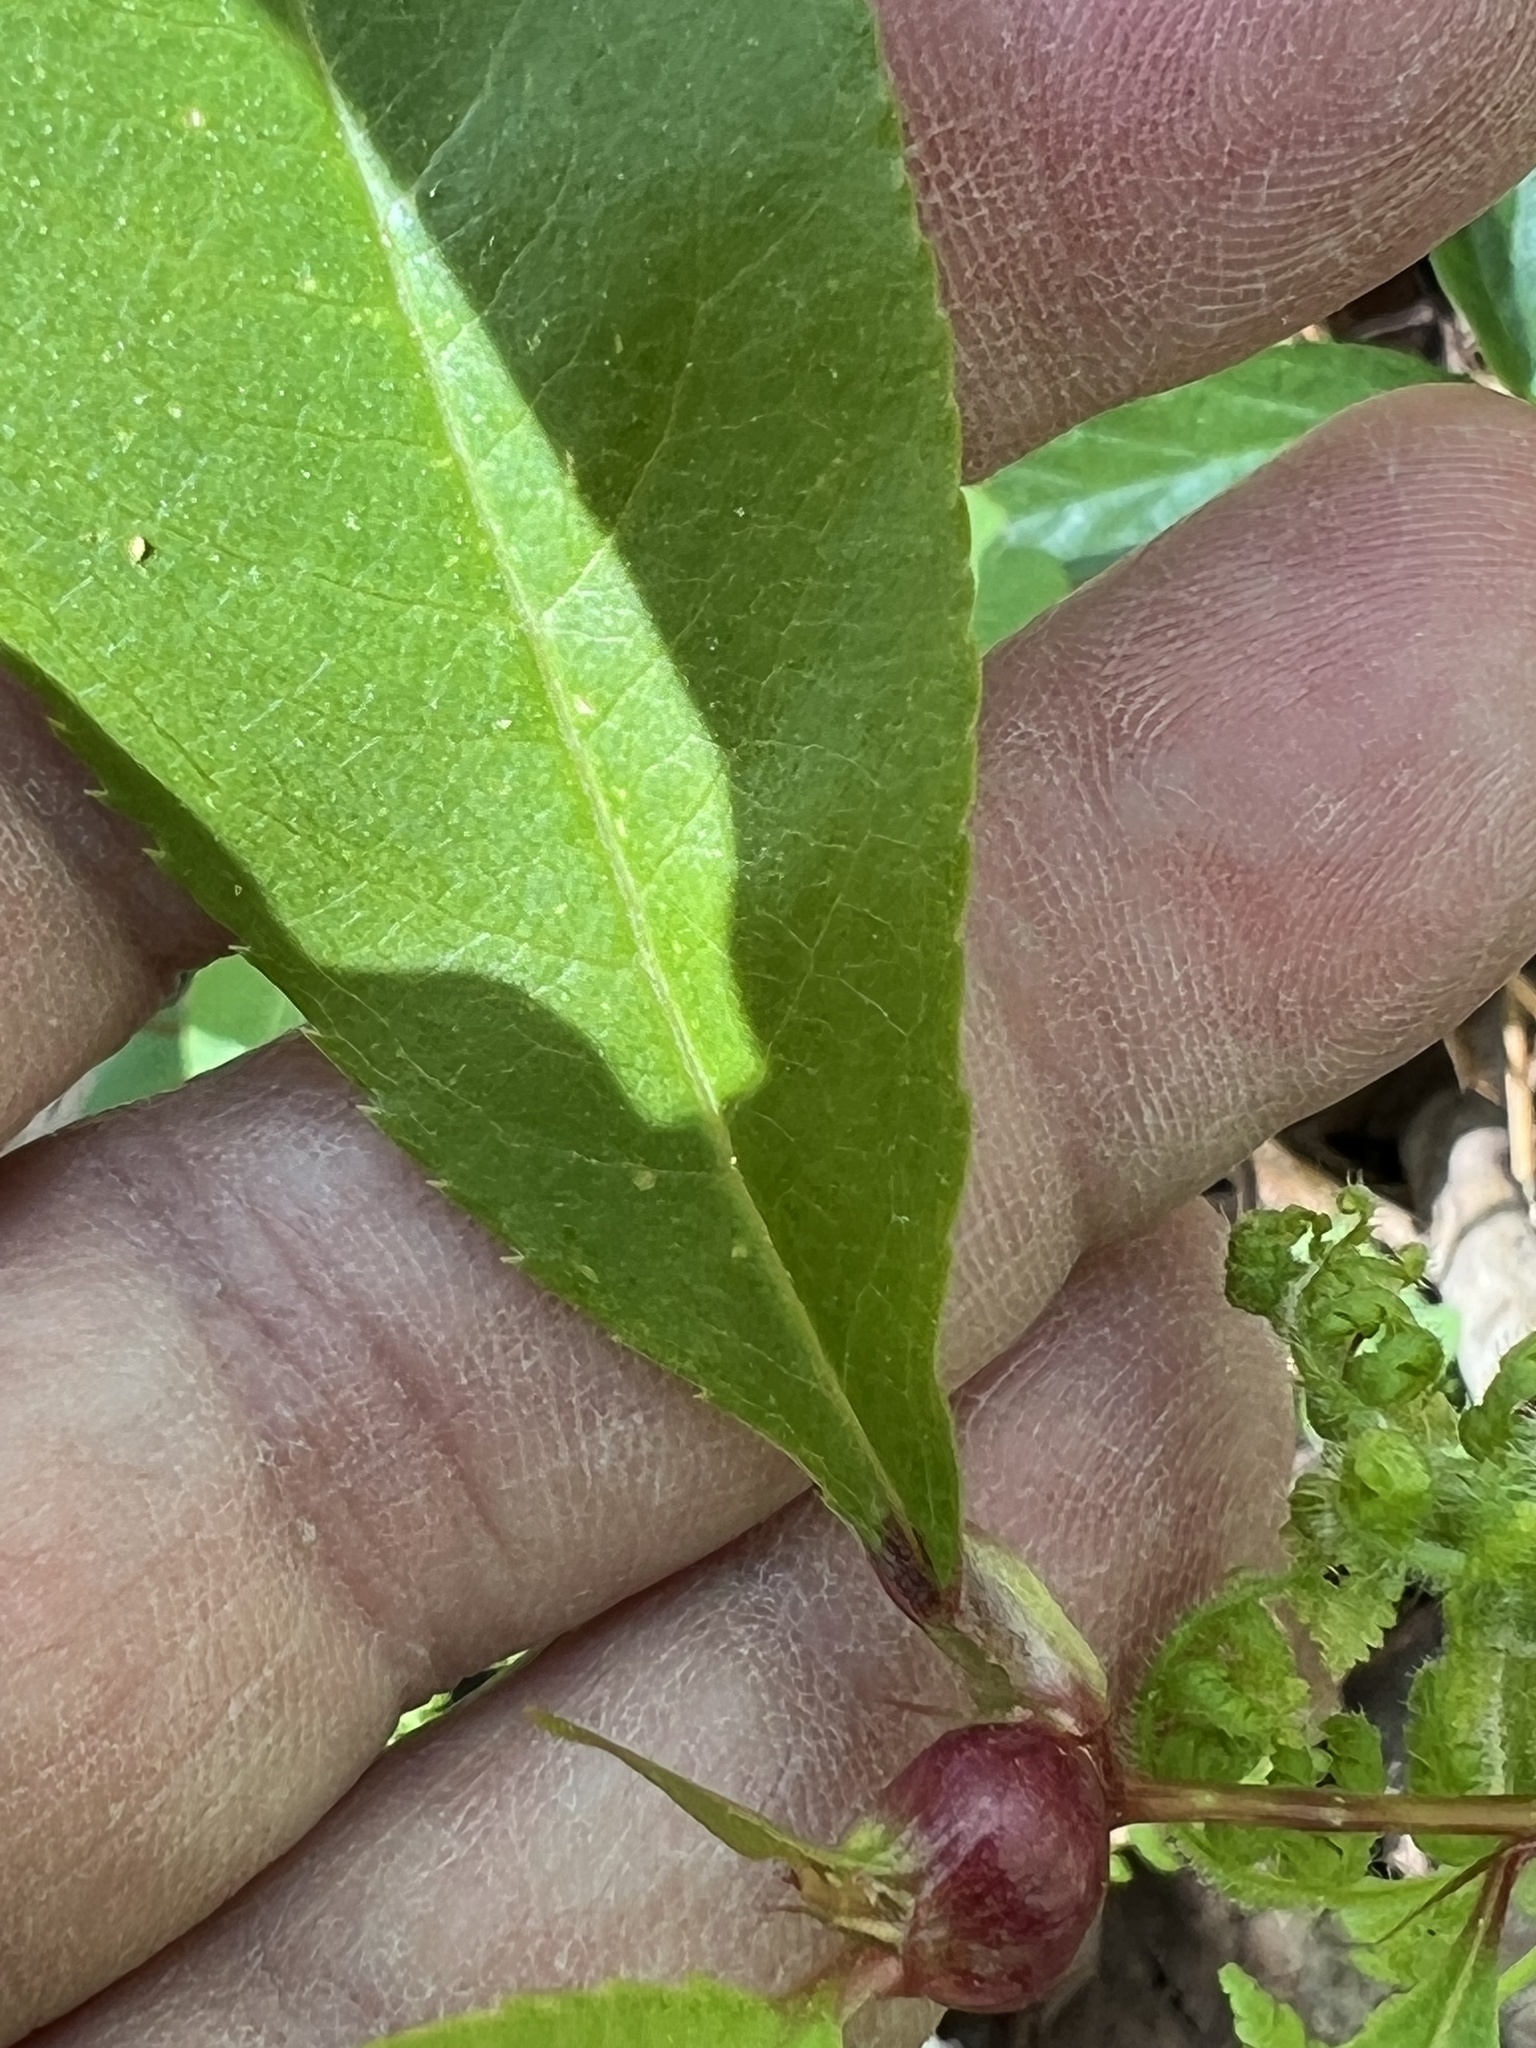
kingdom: Animalia
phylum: Arthropoda
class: Insecta
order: Diptera
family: Cecidomyiidae
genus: Contarinia
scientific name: Contarinia cerasiserotinae
